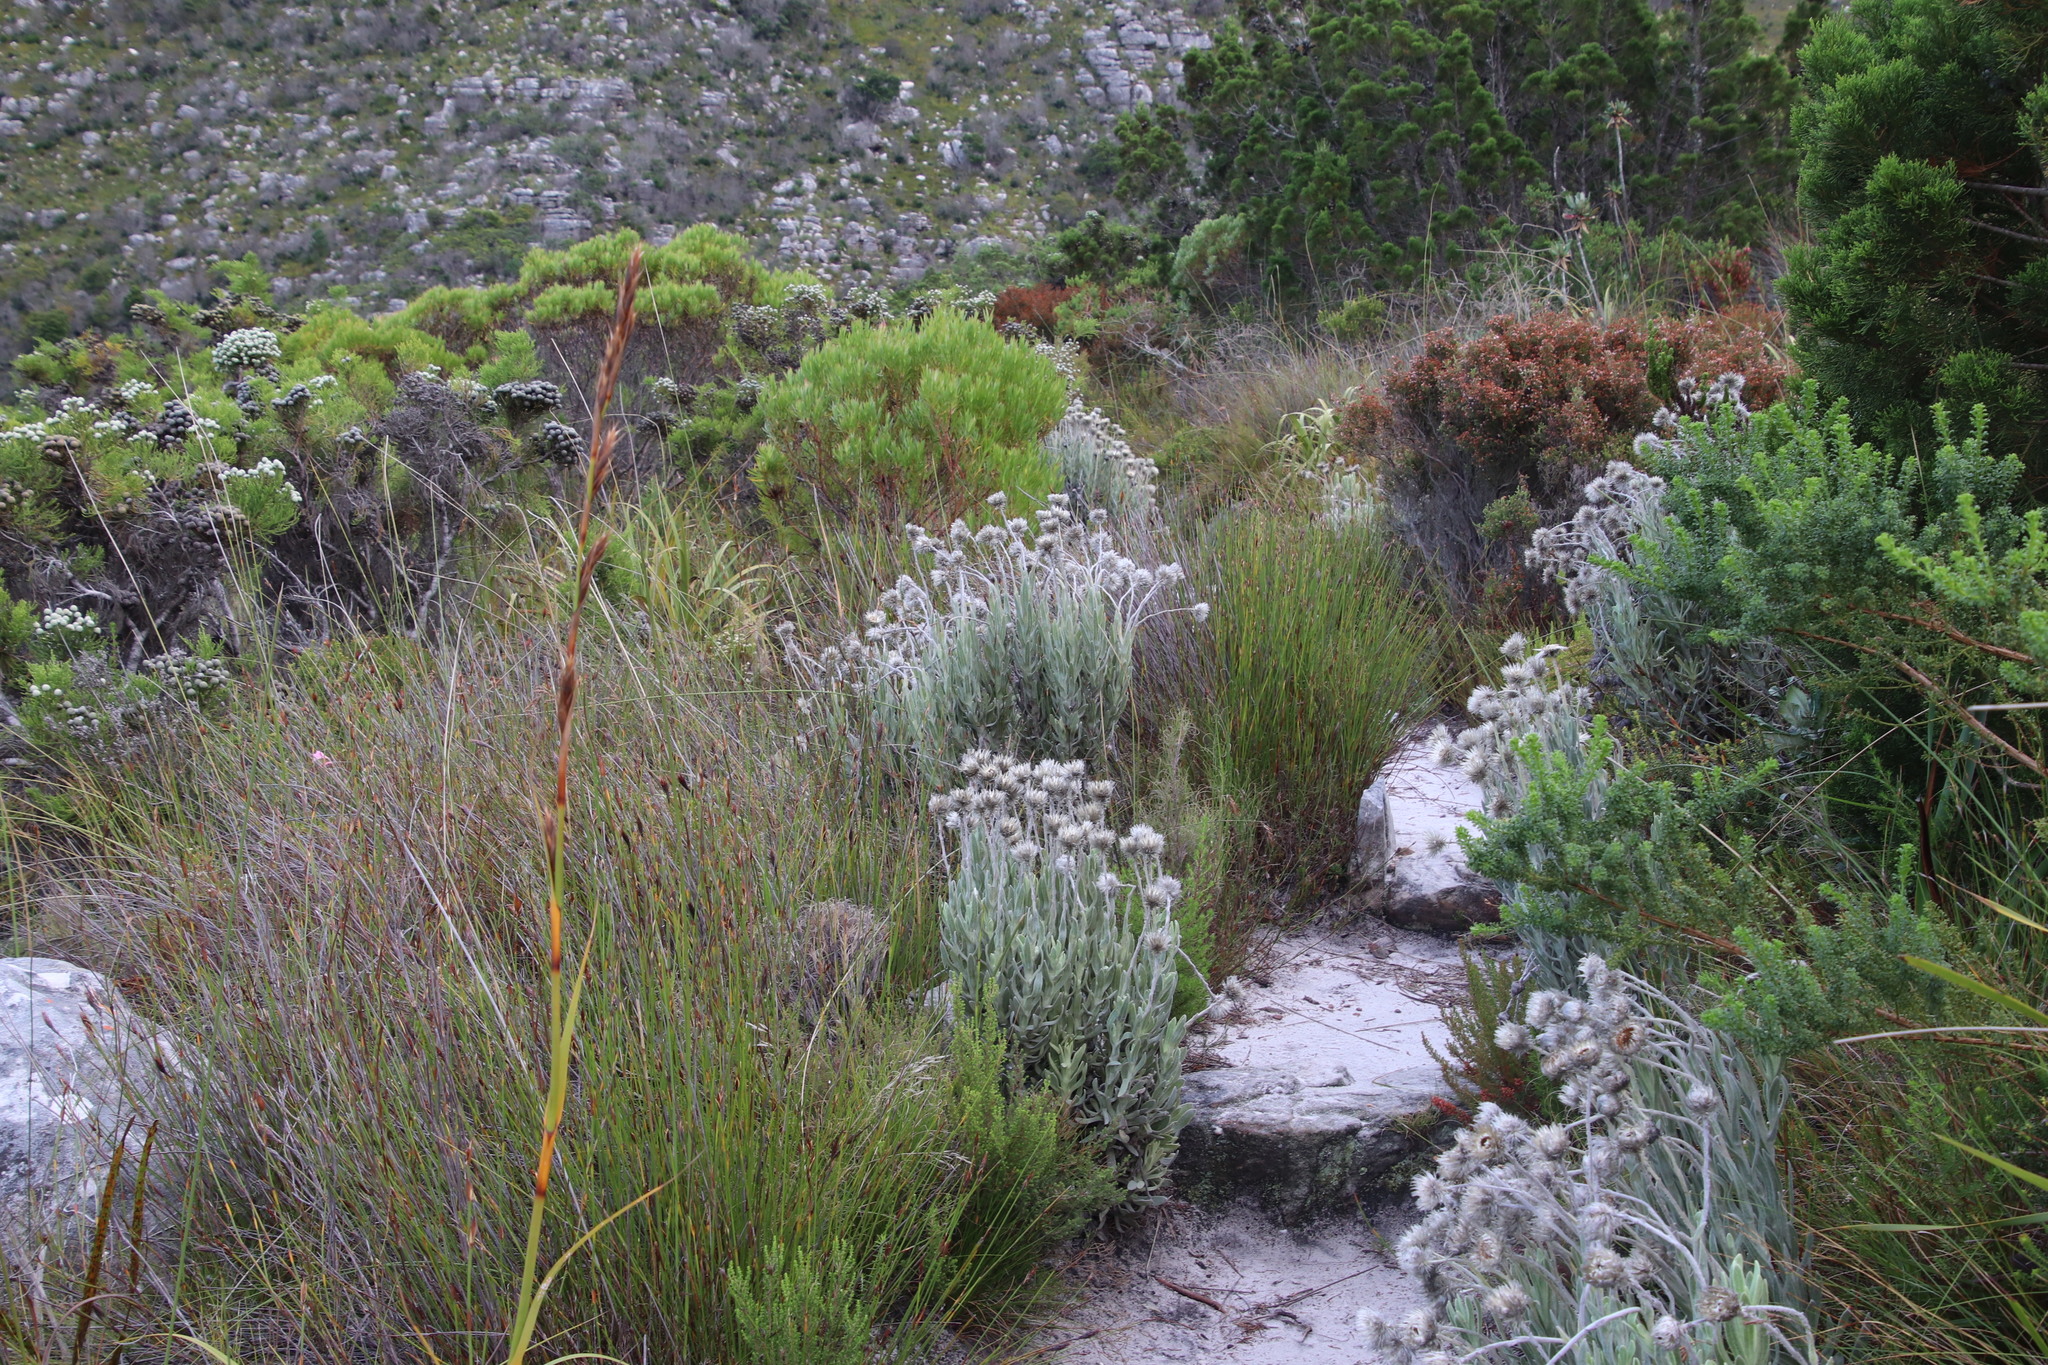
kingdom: Plantae
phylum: Tracheophyta
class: Magnoliopsida
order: Asterales
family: Asteraceae
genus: Syncarpha
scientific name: Syncarpha vestita
